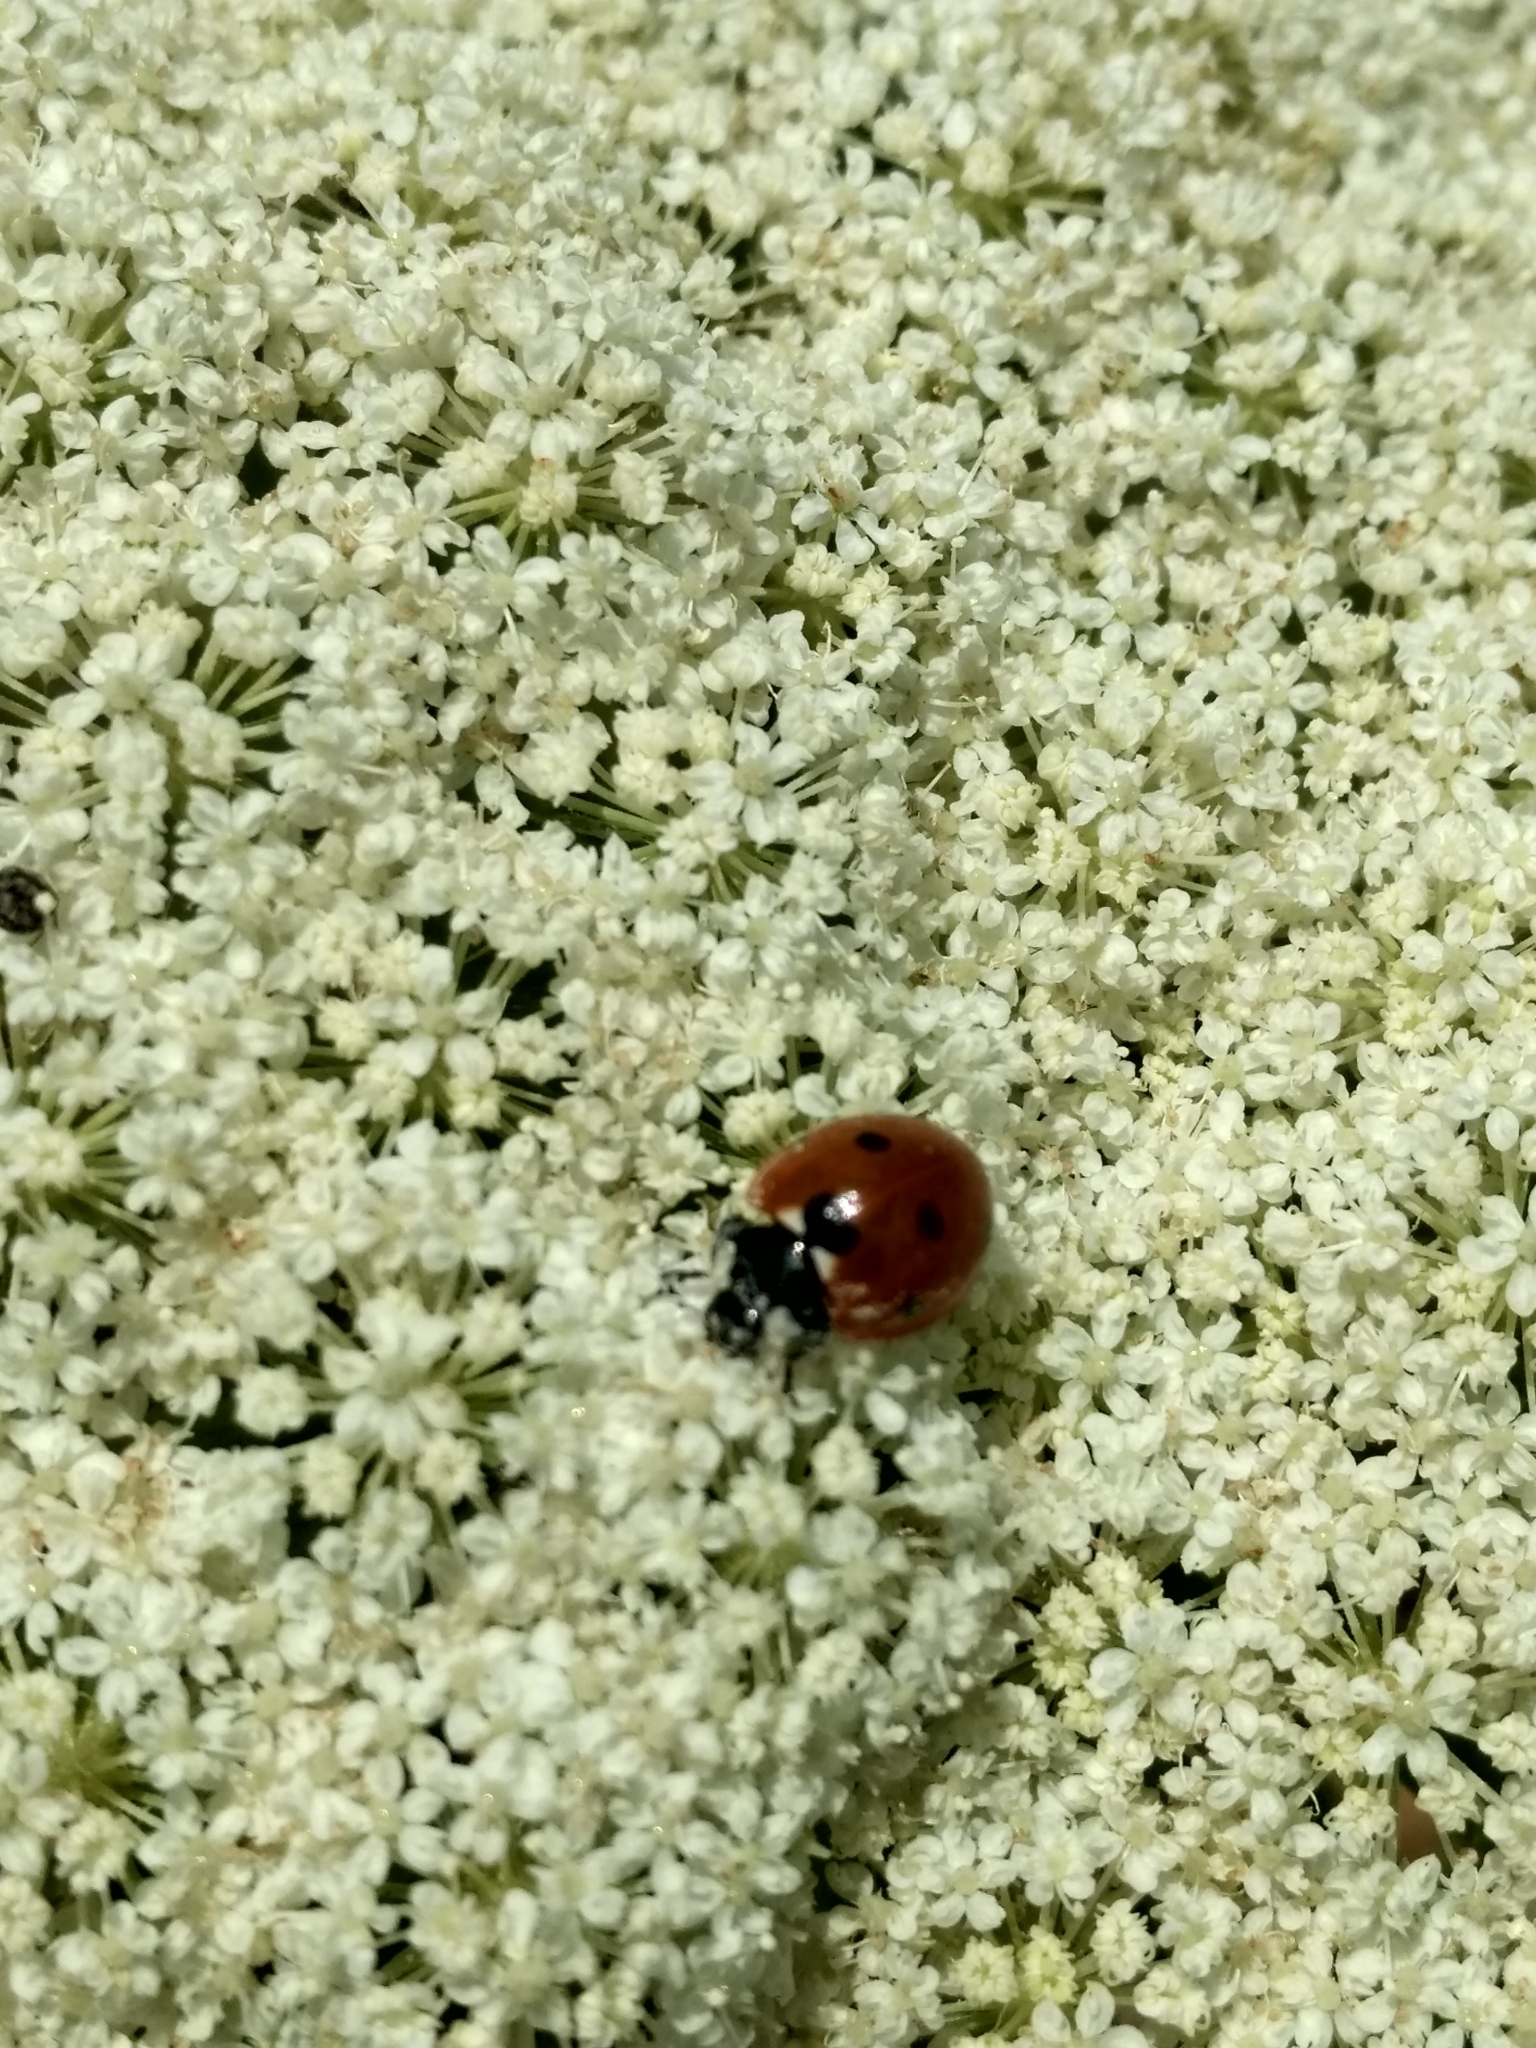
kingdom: Animalia
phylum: Arthropoda
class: Insecta
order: Coleoptera
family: Coccinellidae
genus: Coccinella
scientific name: Coccinella septempunctata
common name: Sevenspotted lady beetle
